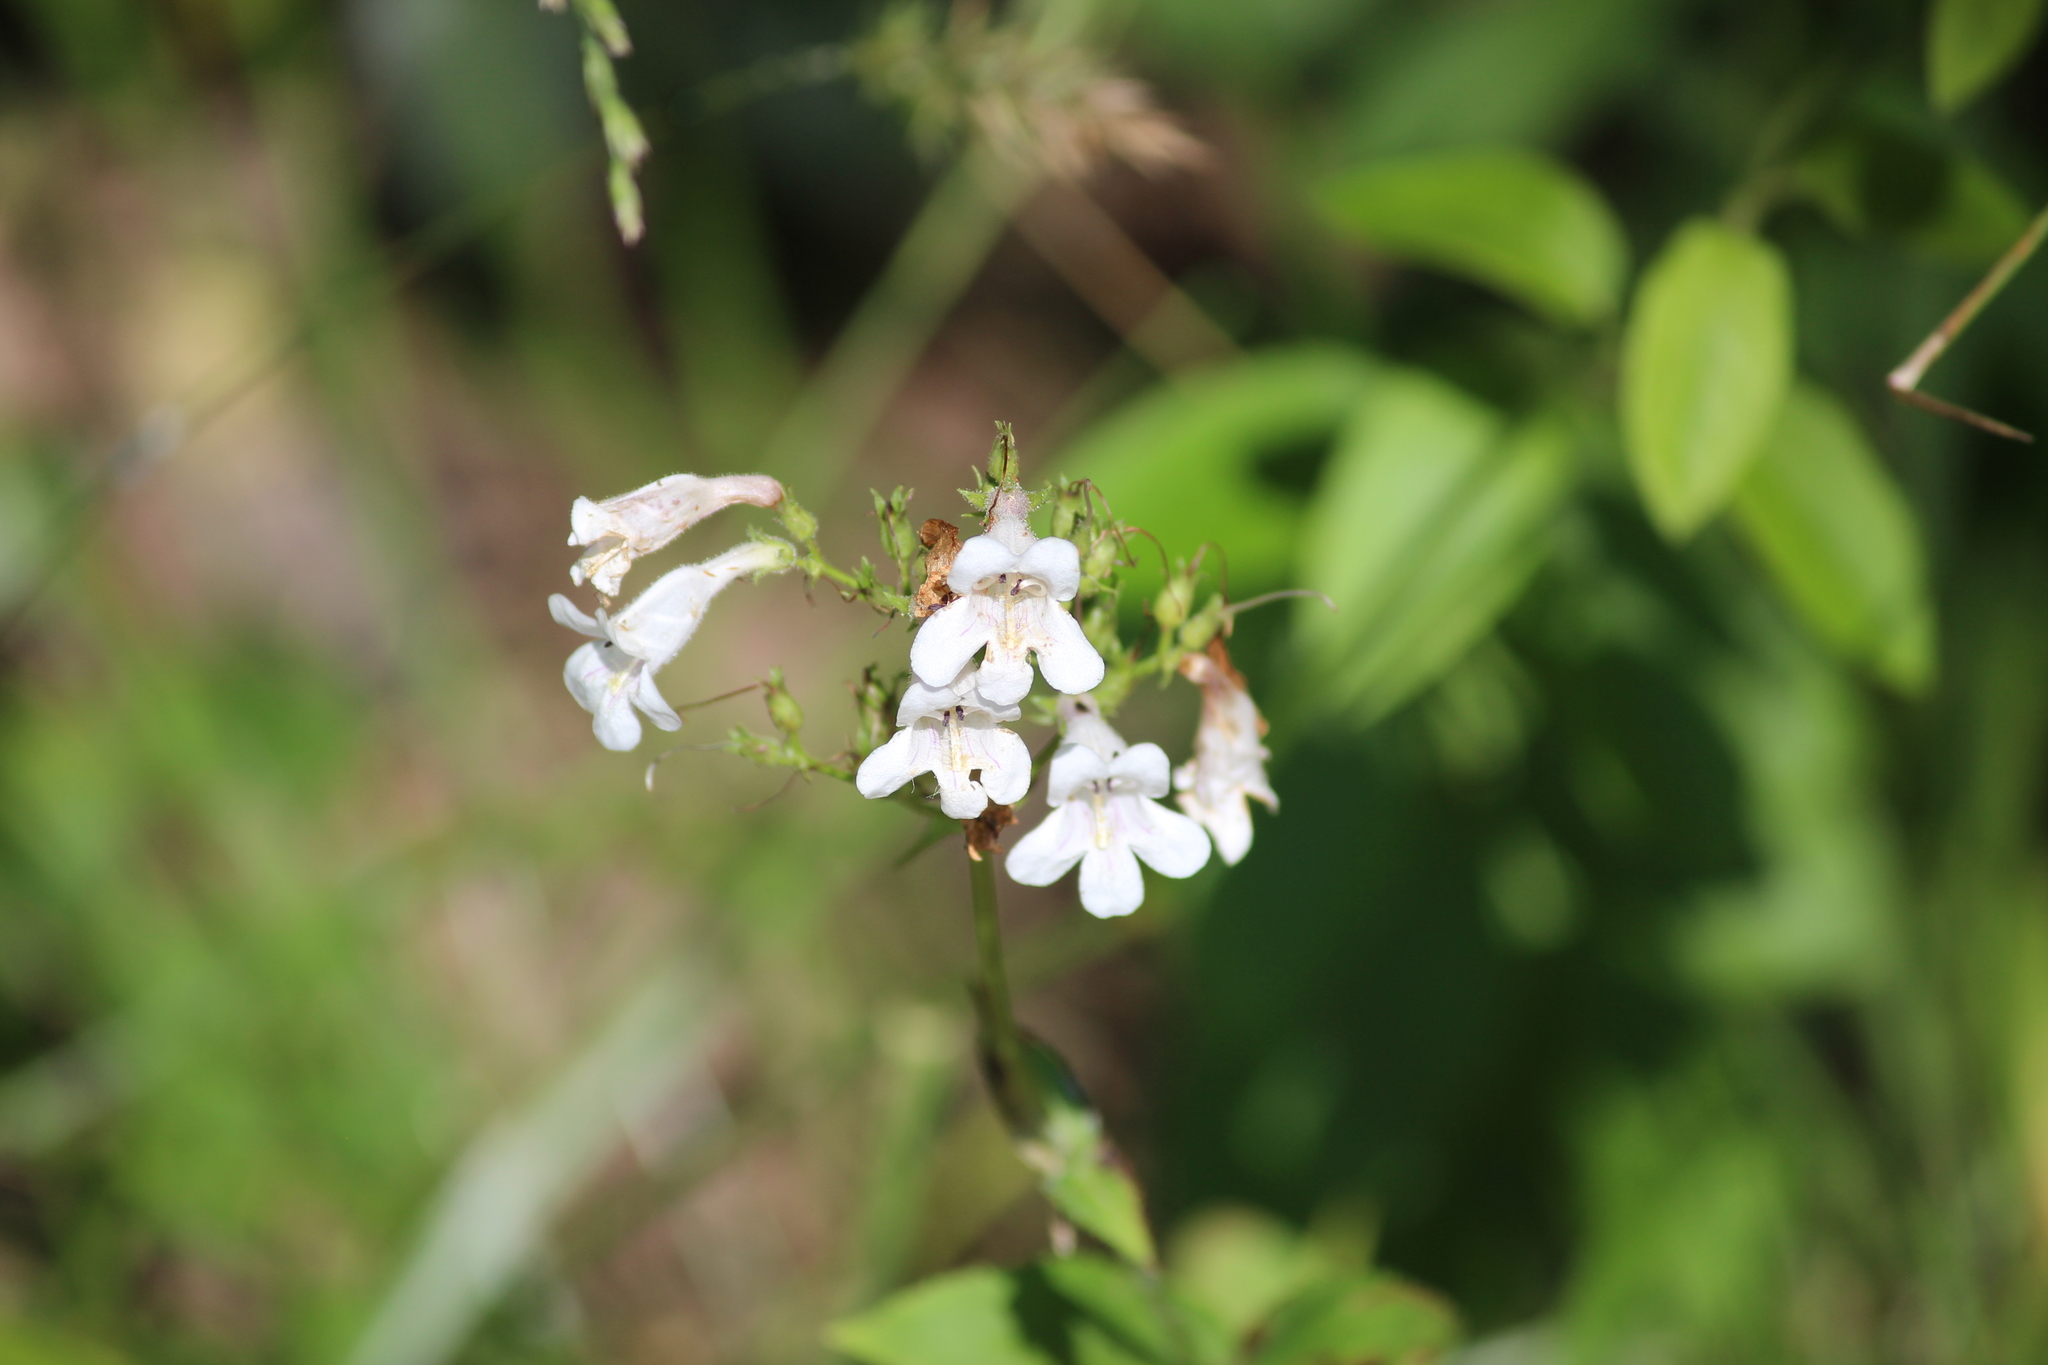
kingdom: Plantae
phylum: Tracheophyta
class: Magnoliopsida
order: Lamiales
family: Plantaginaceae
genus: Penstemon
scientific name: Penstemon digitalis
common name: Foxglove beardtongue
